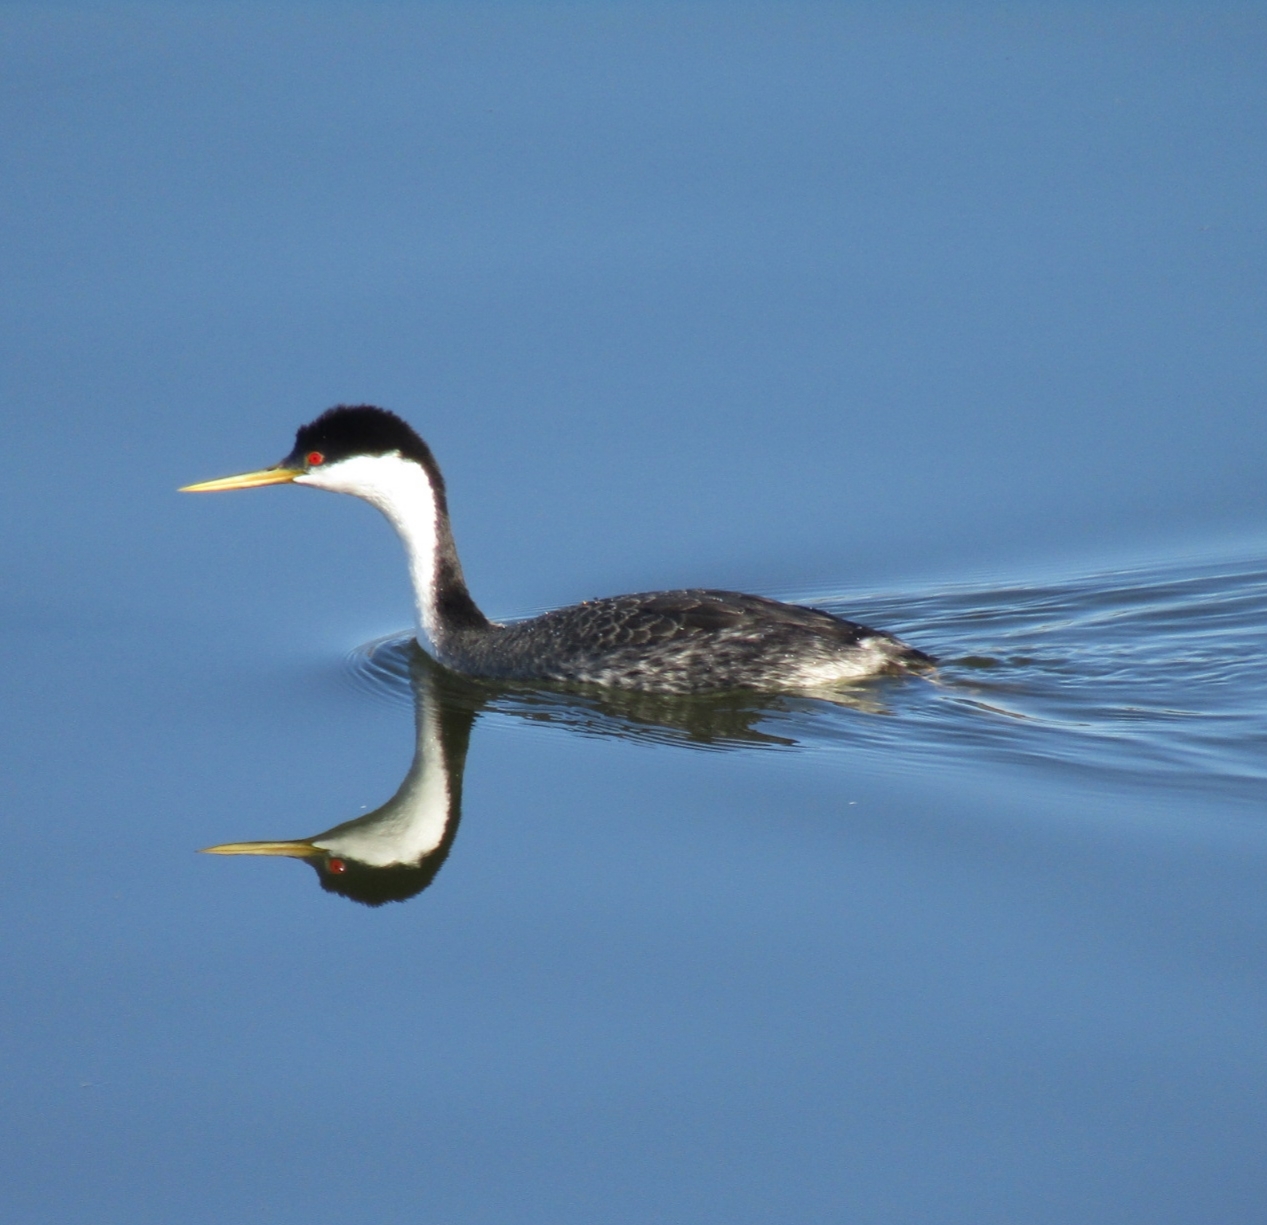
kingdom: Animalia
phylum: Chordata
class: Aves
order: Podicipediformes
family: Podicipedidae
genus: Aechmophorus
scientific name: Aechmophorus occidentalis
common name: Western grebe
